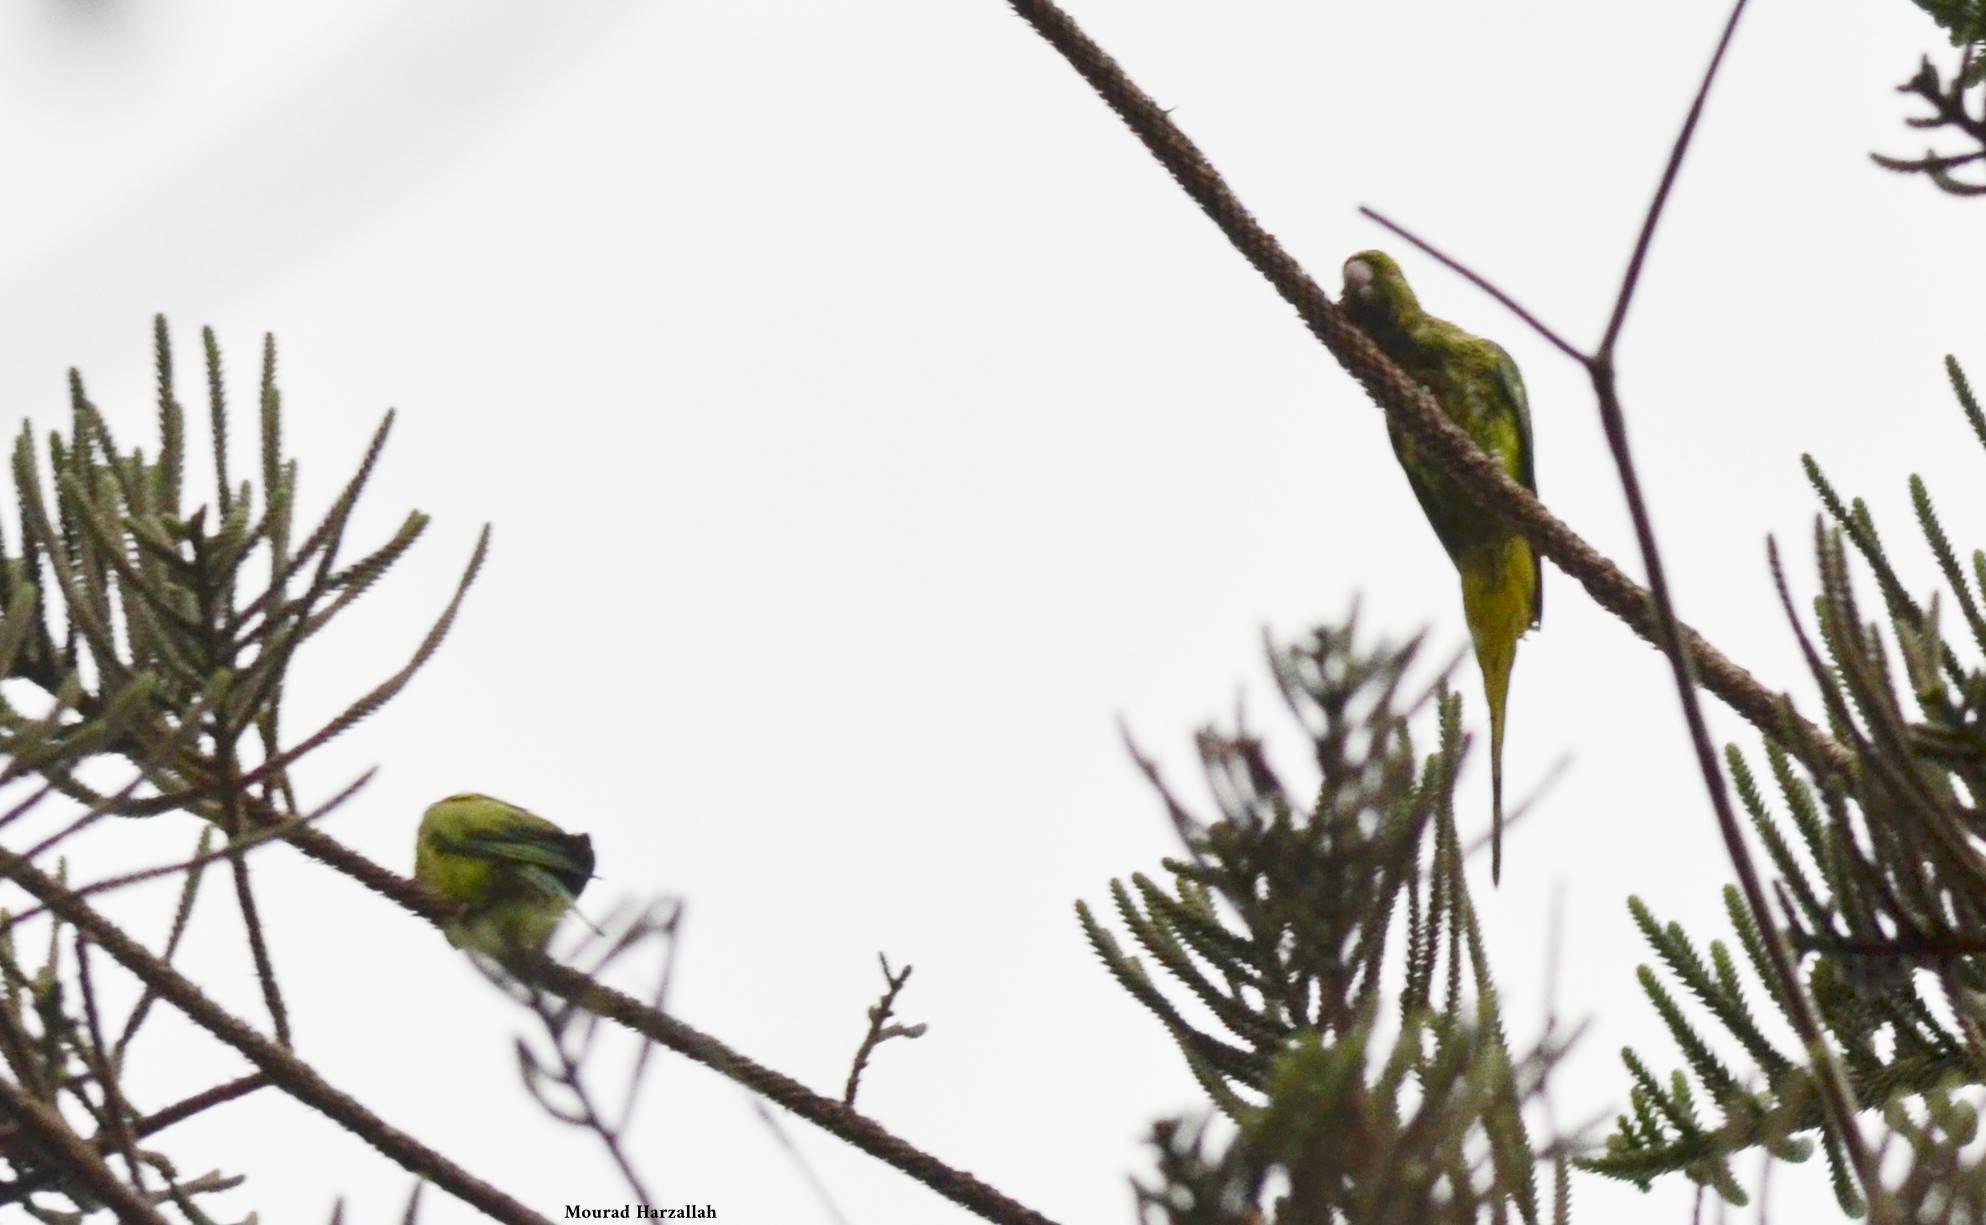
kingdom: Animalia
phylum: Chordata
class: Aves
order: Psittaciformes
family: Psittacidae
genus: Psittacula
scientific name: Psittacula krameri
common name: Rose-ringed parakeet
